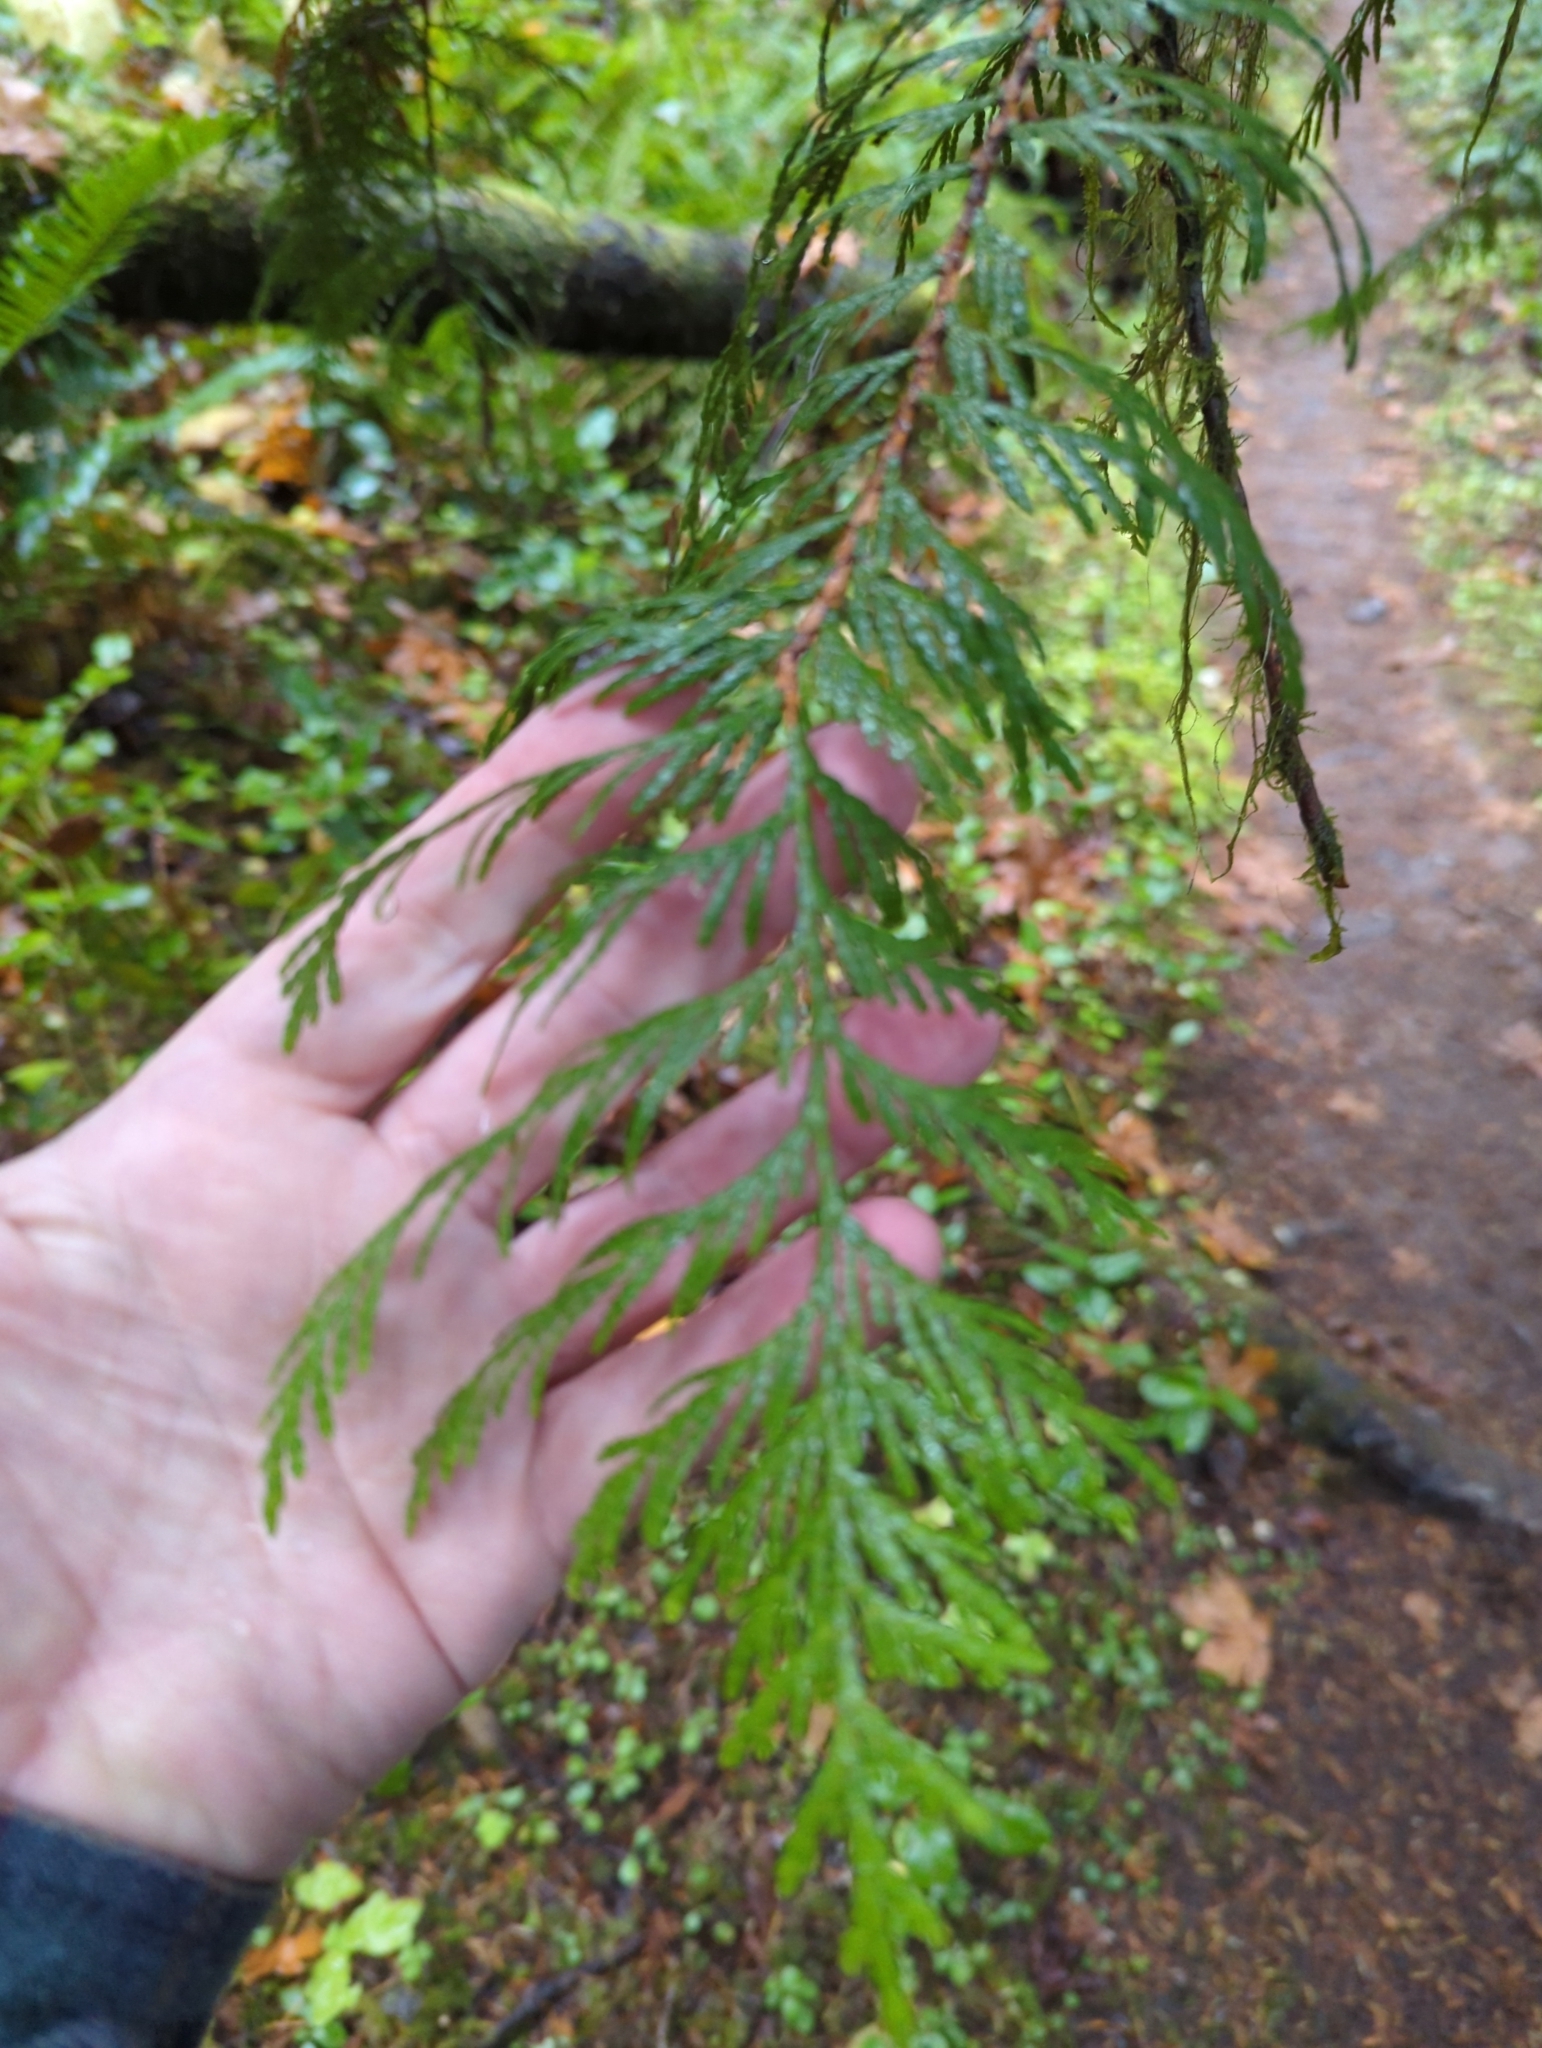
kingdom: Plantae
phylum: Tracheophyta
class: Pinopsida
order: Pinales
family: Cupressaceae
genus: Thuja
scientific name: Thuja plicata
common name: Western red-cedar
